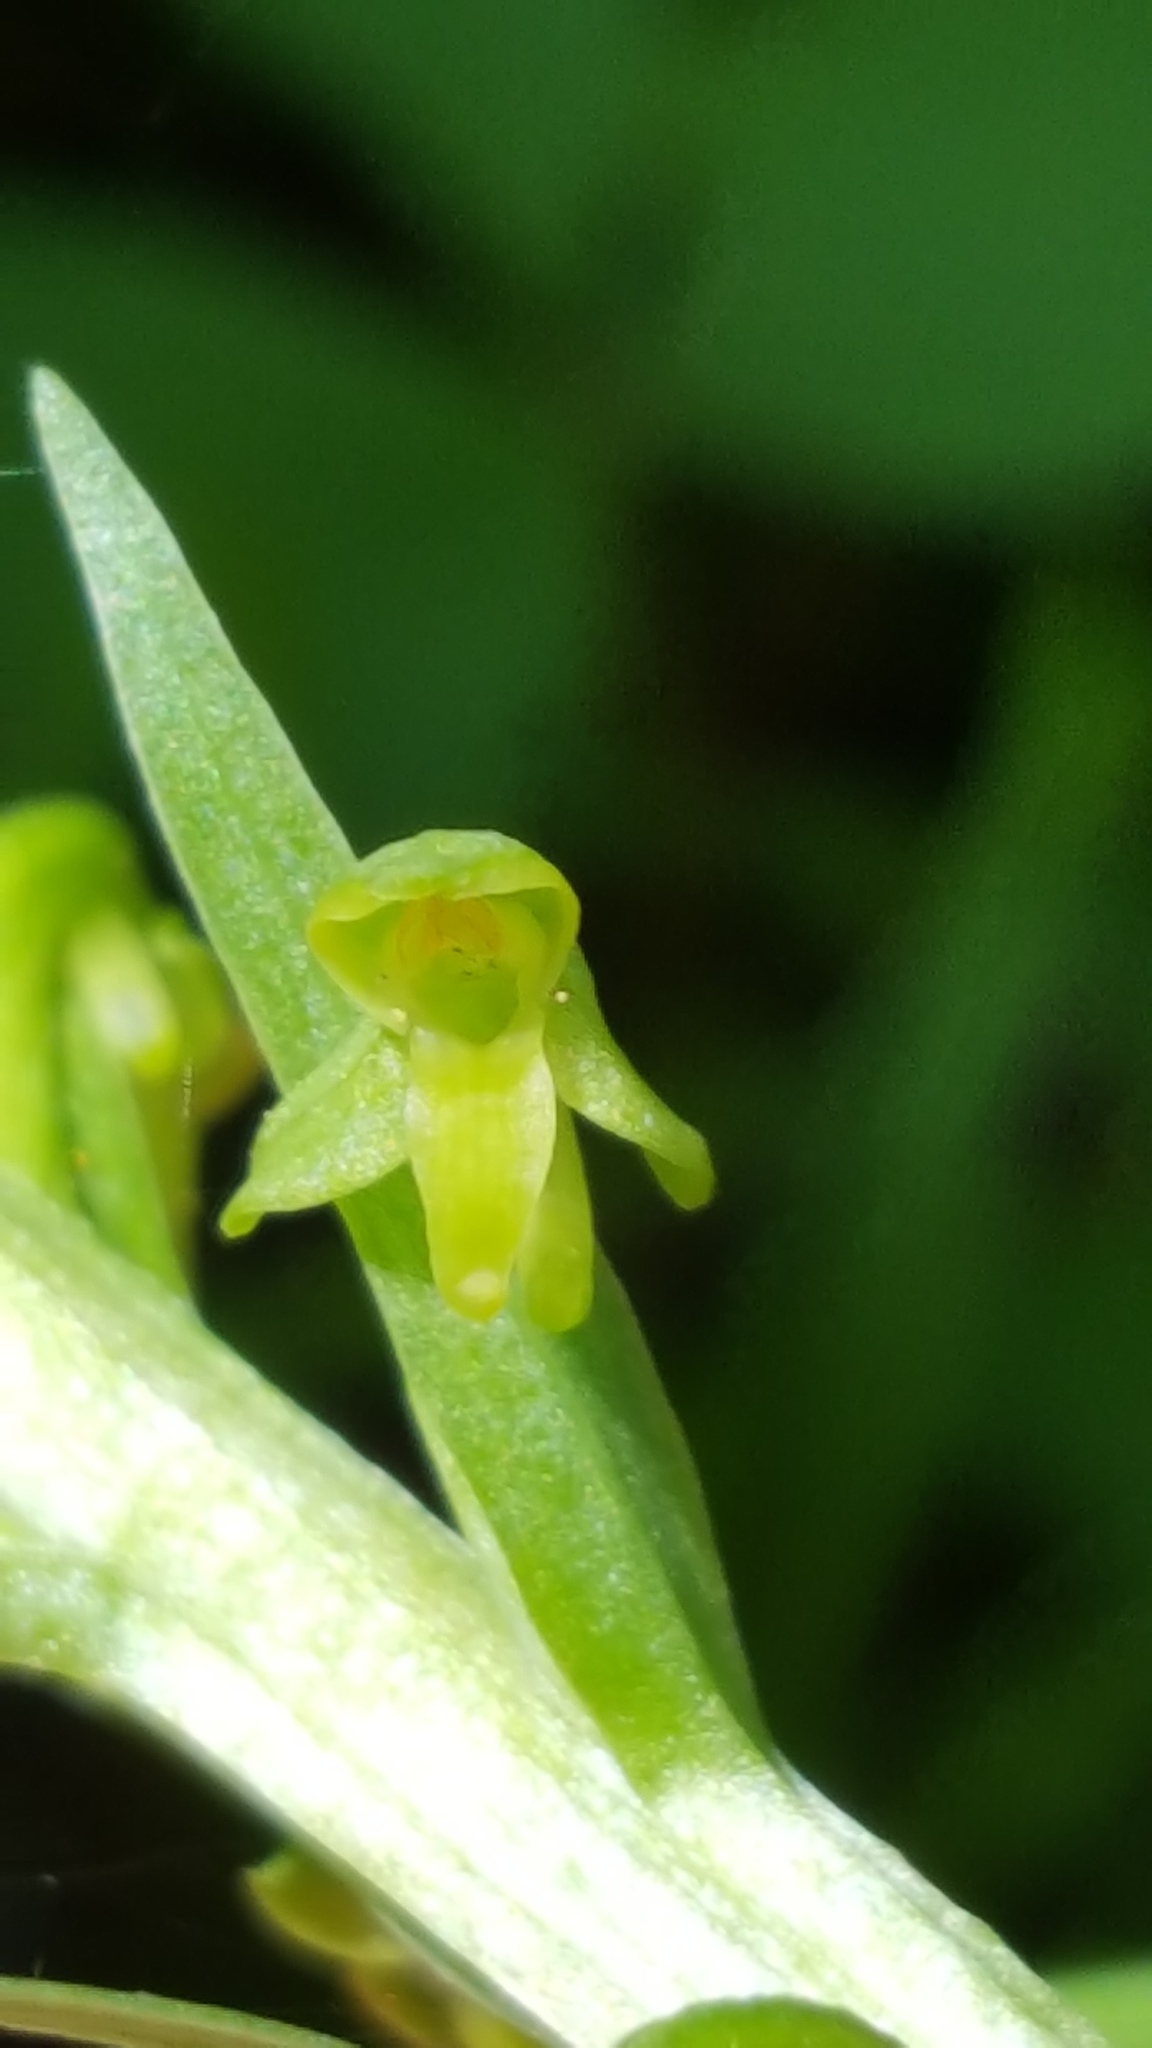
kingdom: Plantae
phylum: Tracheophyta
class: Liliopsida
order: Asparagales
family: Orchidaceae
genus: Platanthera
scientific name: Platanthera aquilonis
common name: Northern green orchid
